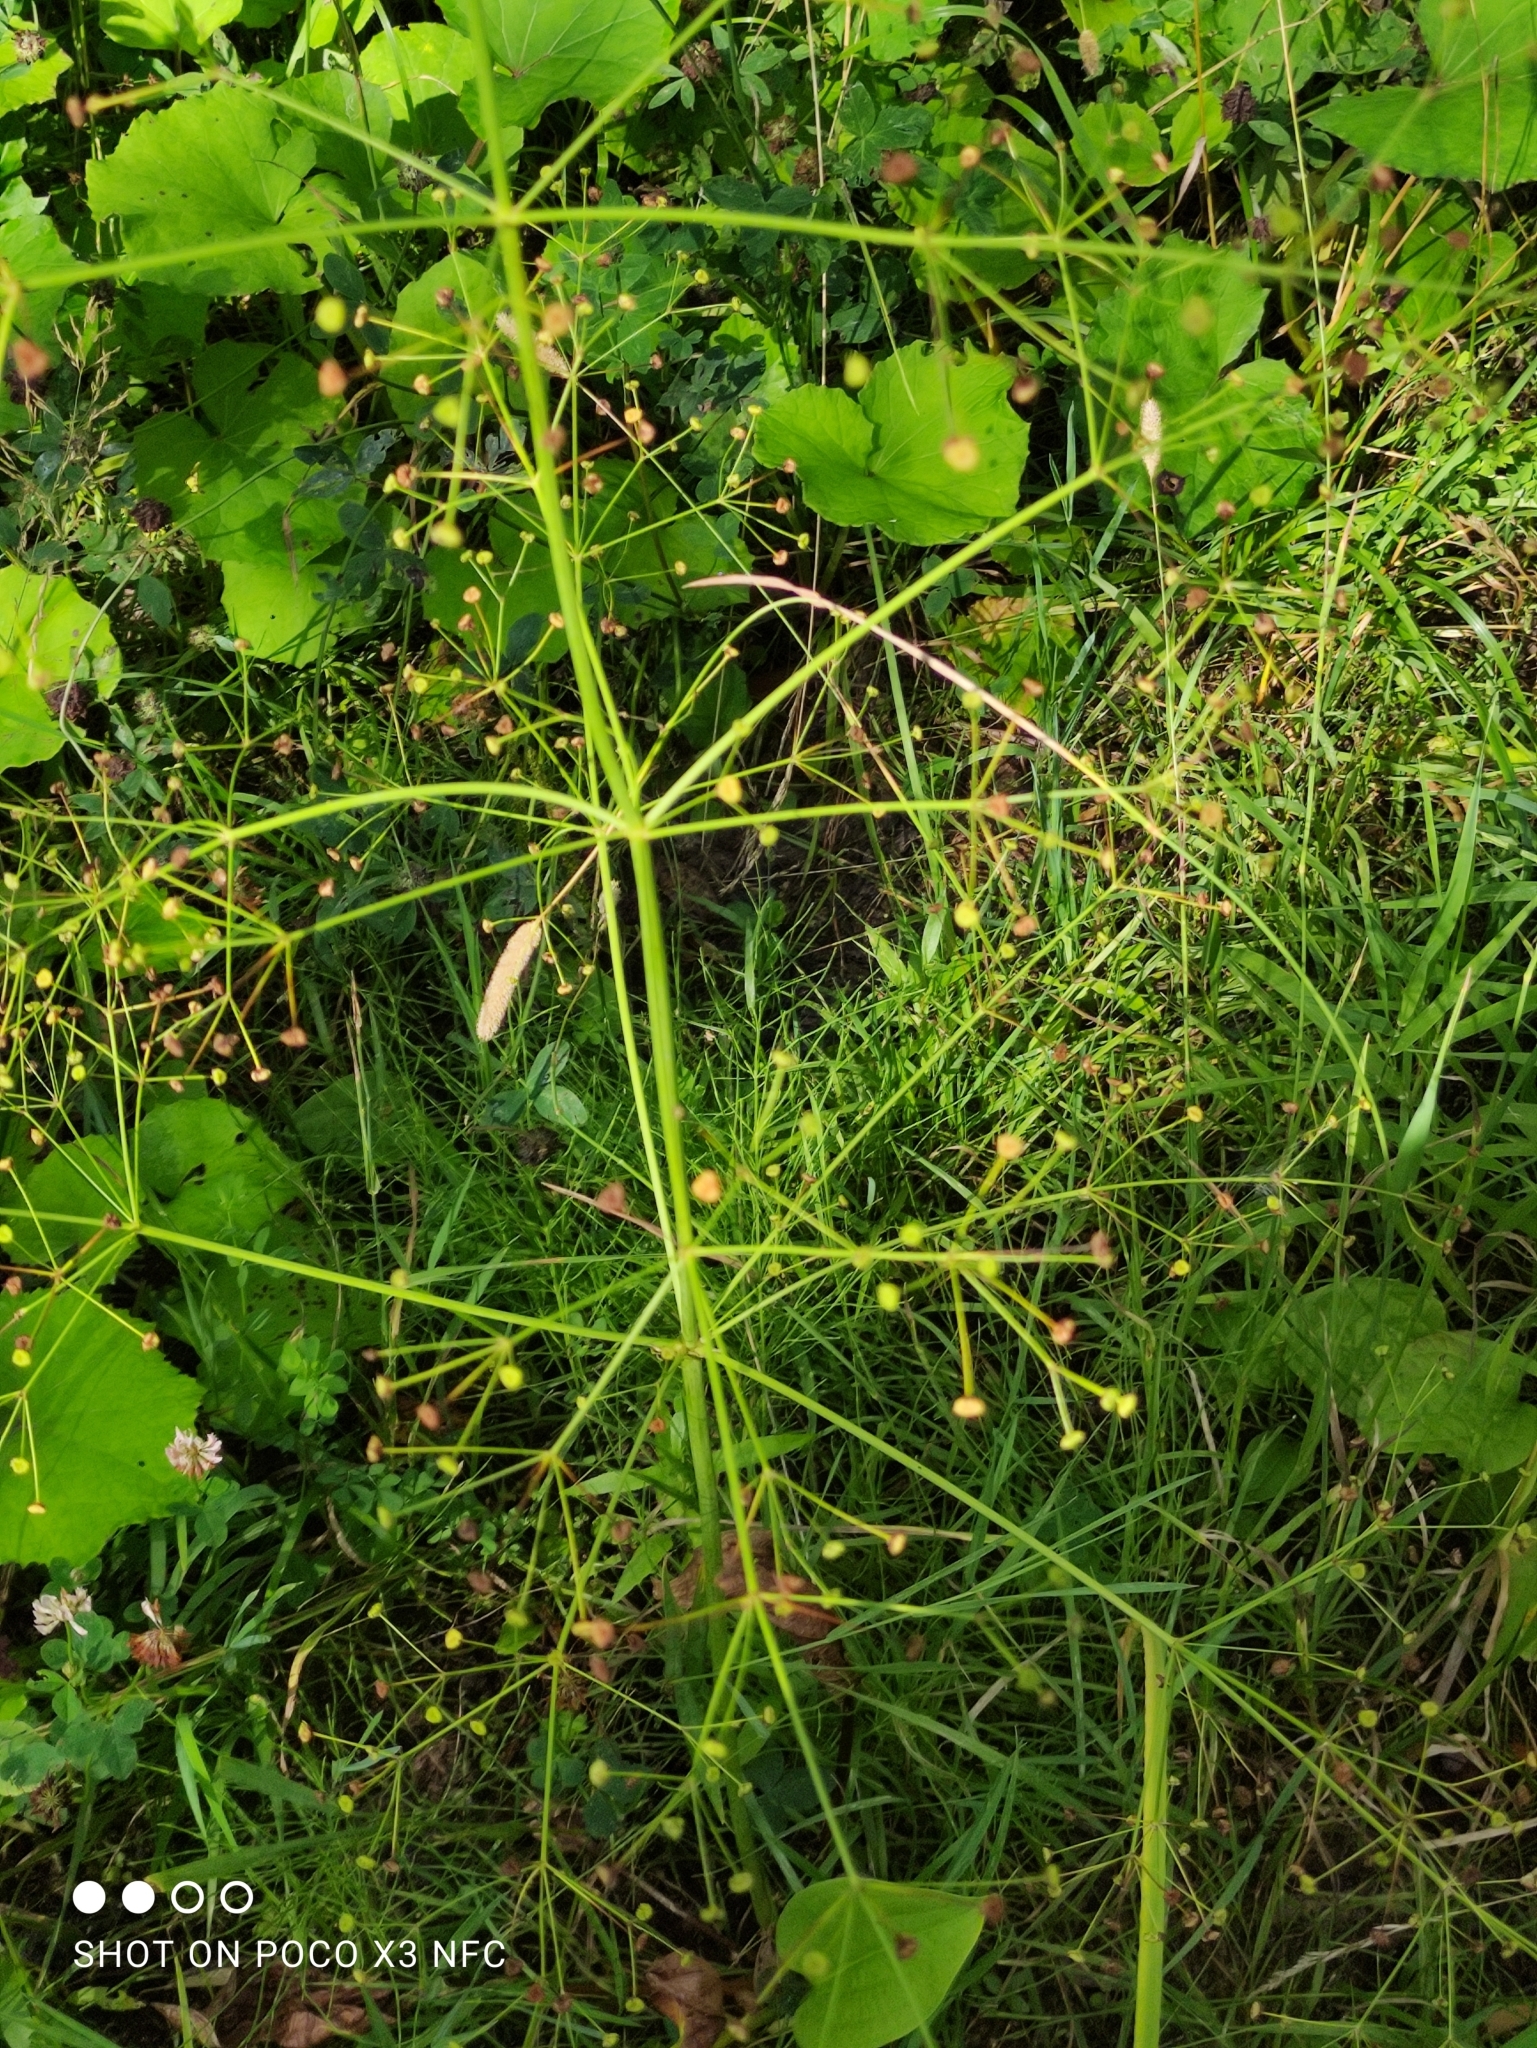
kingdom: Plantae
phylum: Tracheophyta
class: Liliopsida
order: Alismatales
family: Alismataceae
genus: Alisma
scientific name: Alisma plantago-aquatica
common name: Water-plantain
